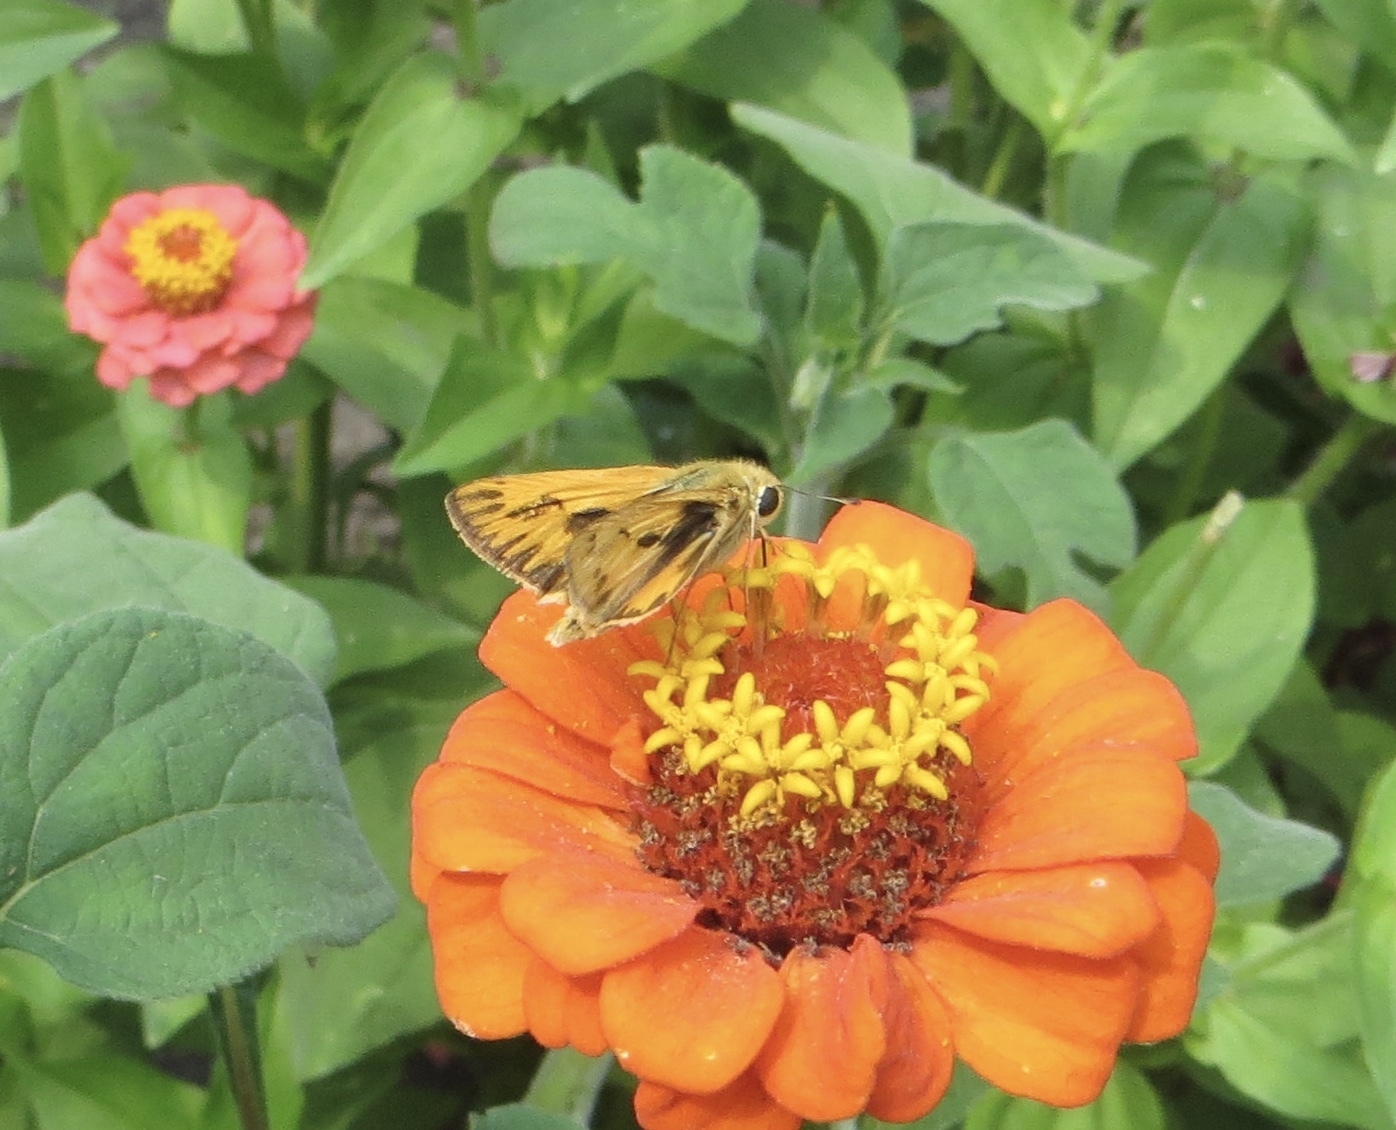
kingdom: Animalia
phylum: Arthropoda
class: Insecta
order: Lepidoptera
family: Hesperiidae
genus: Hylephila
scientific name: Hylephila phyleus
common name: Fiery skipper
